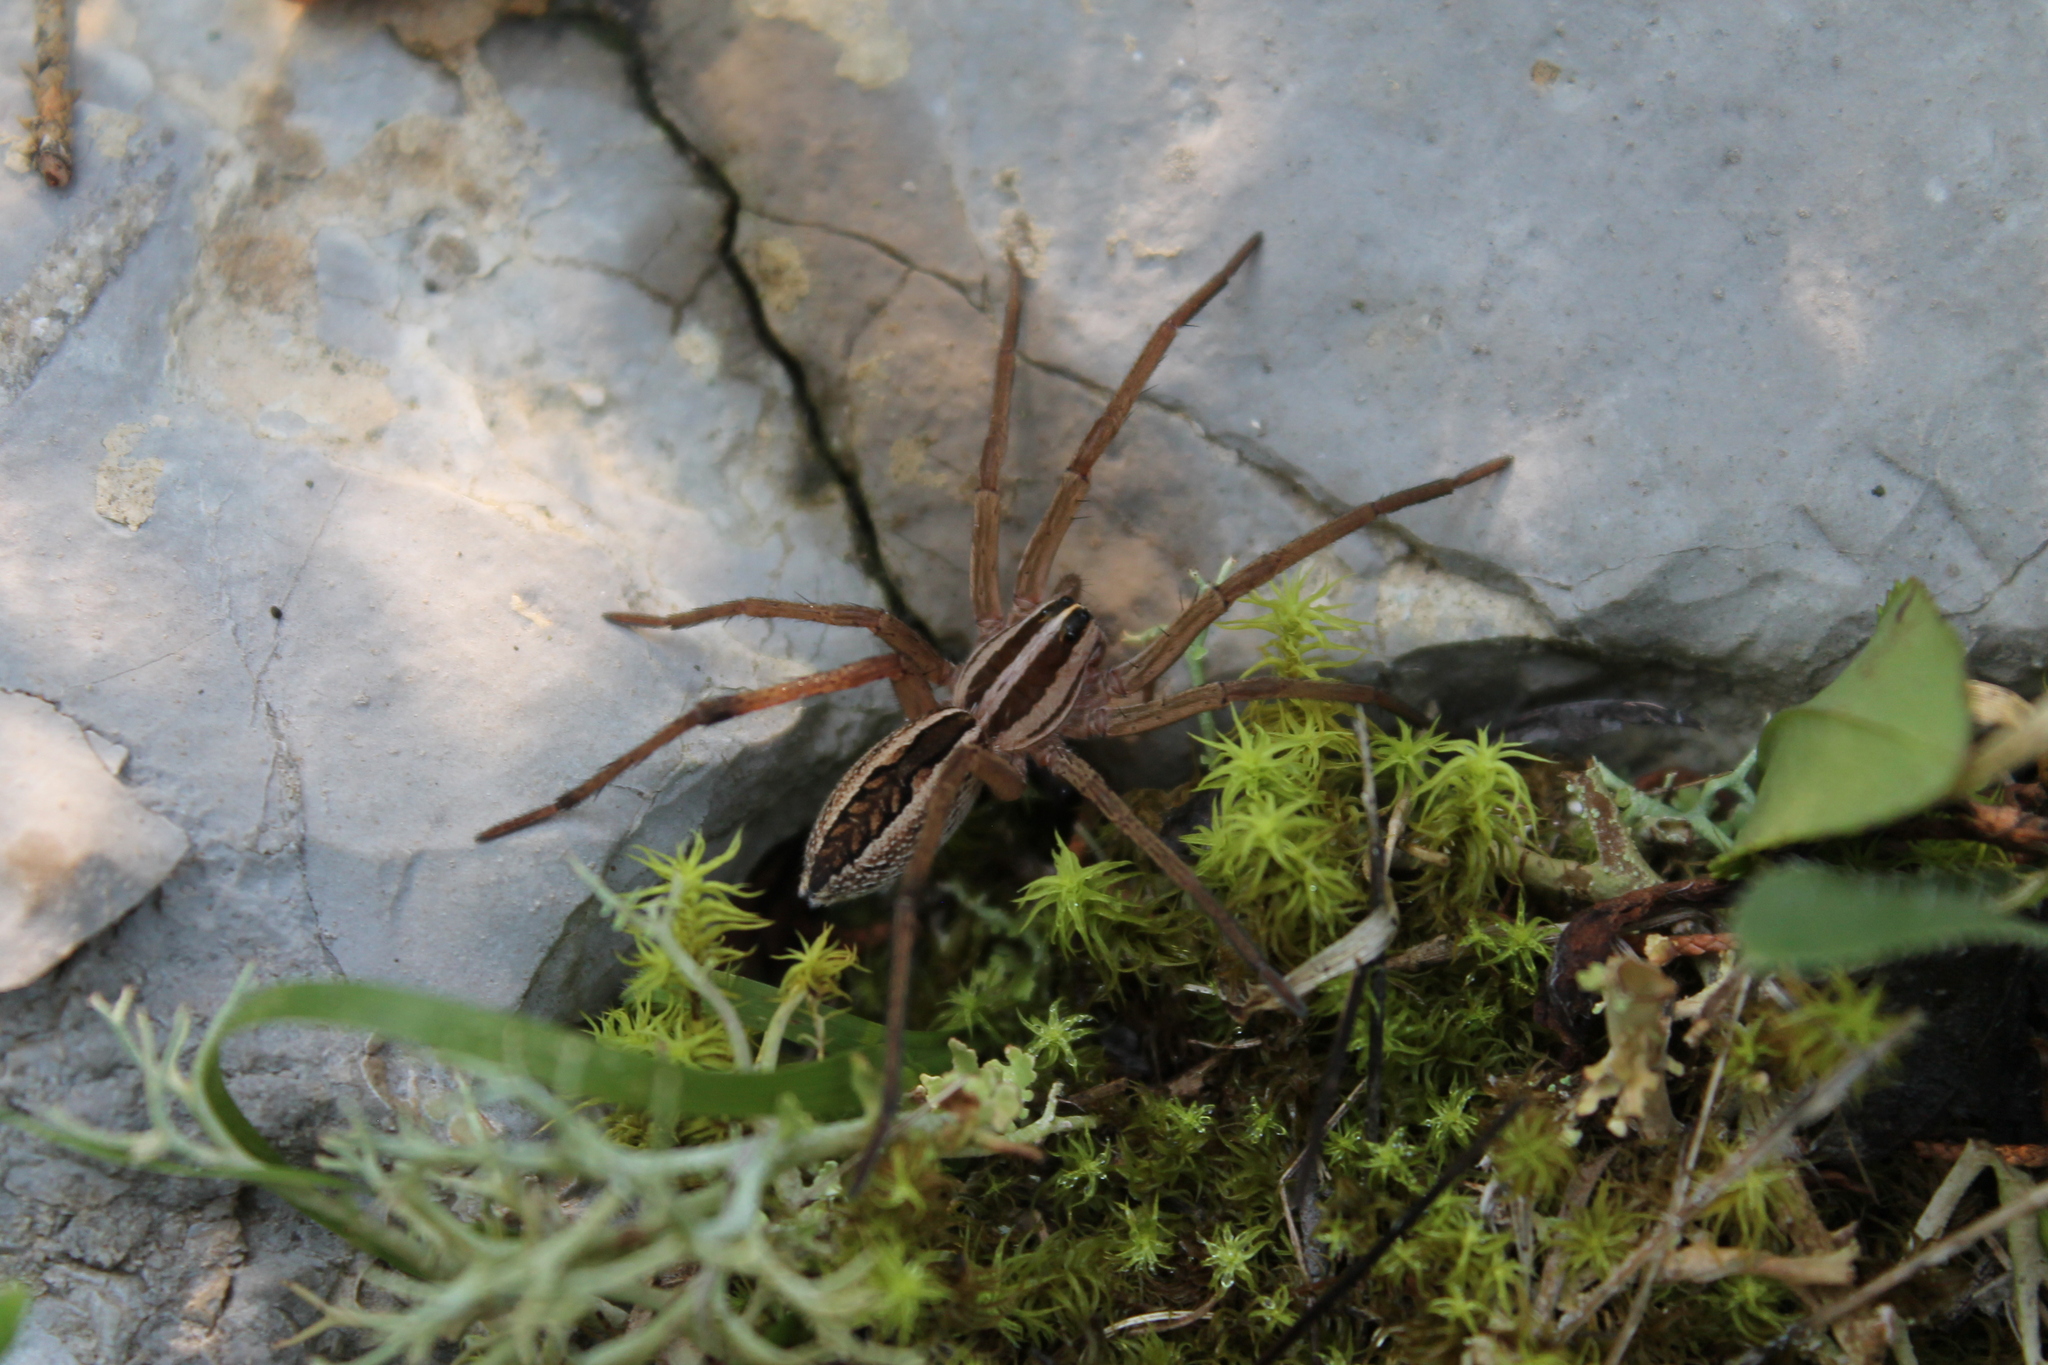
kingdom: Animalia
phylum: Arthropoda
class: Arachnida
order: Araneae
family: Lycosidae
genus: Rabidosa
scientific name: Rabidosa rabida
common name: Rabid wolf spider
